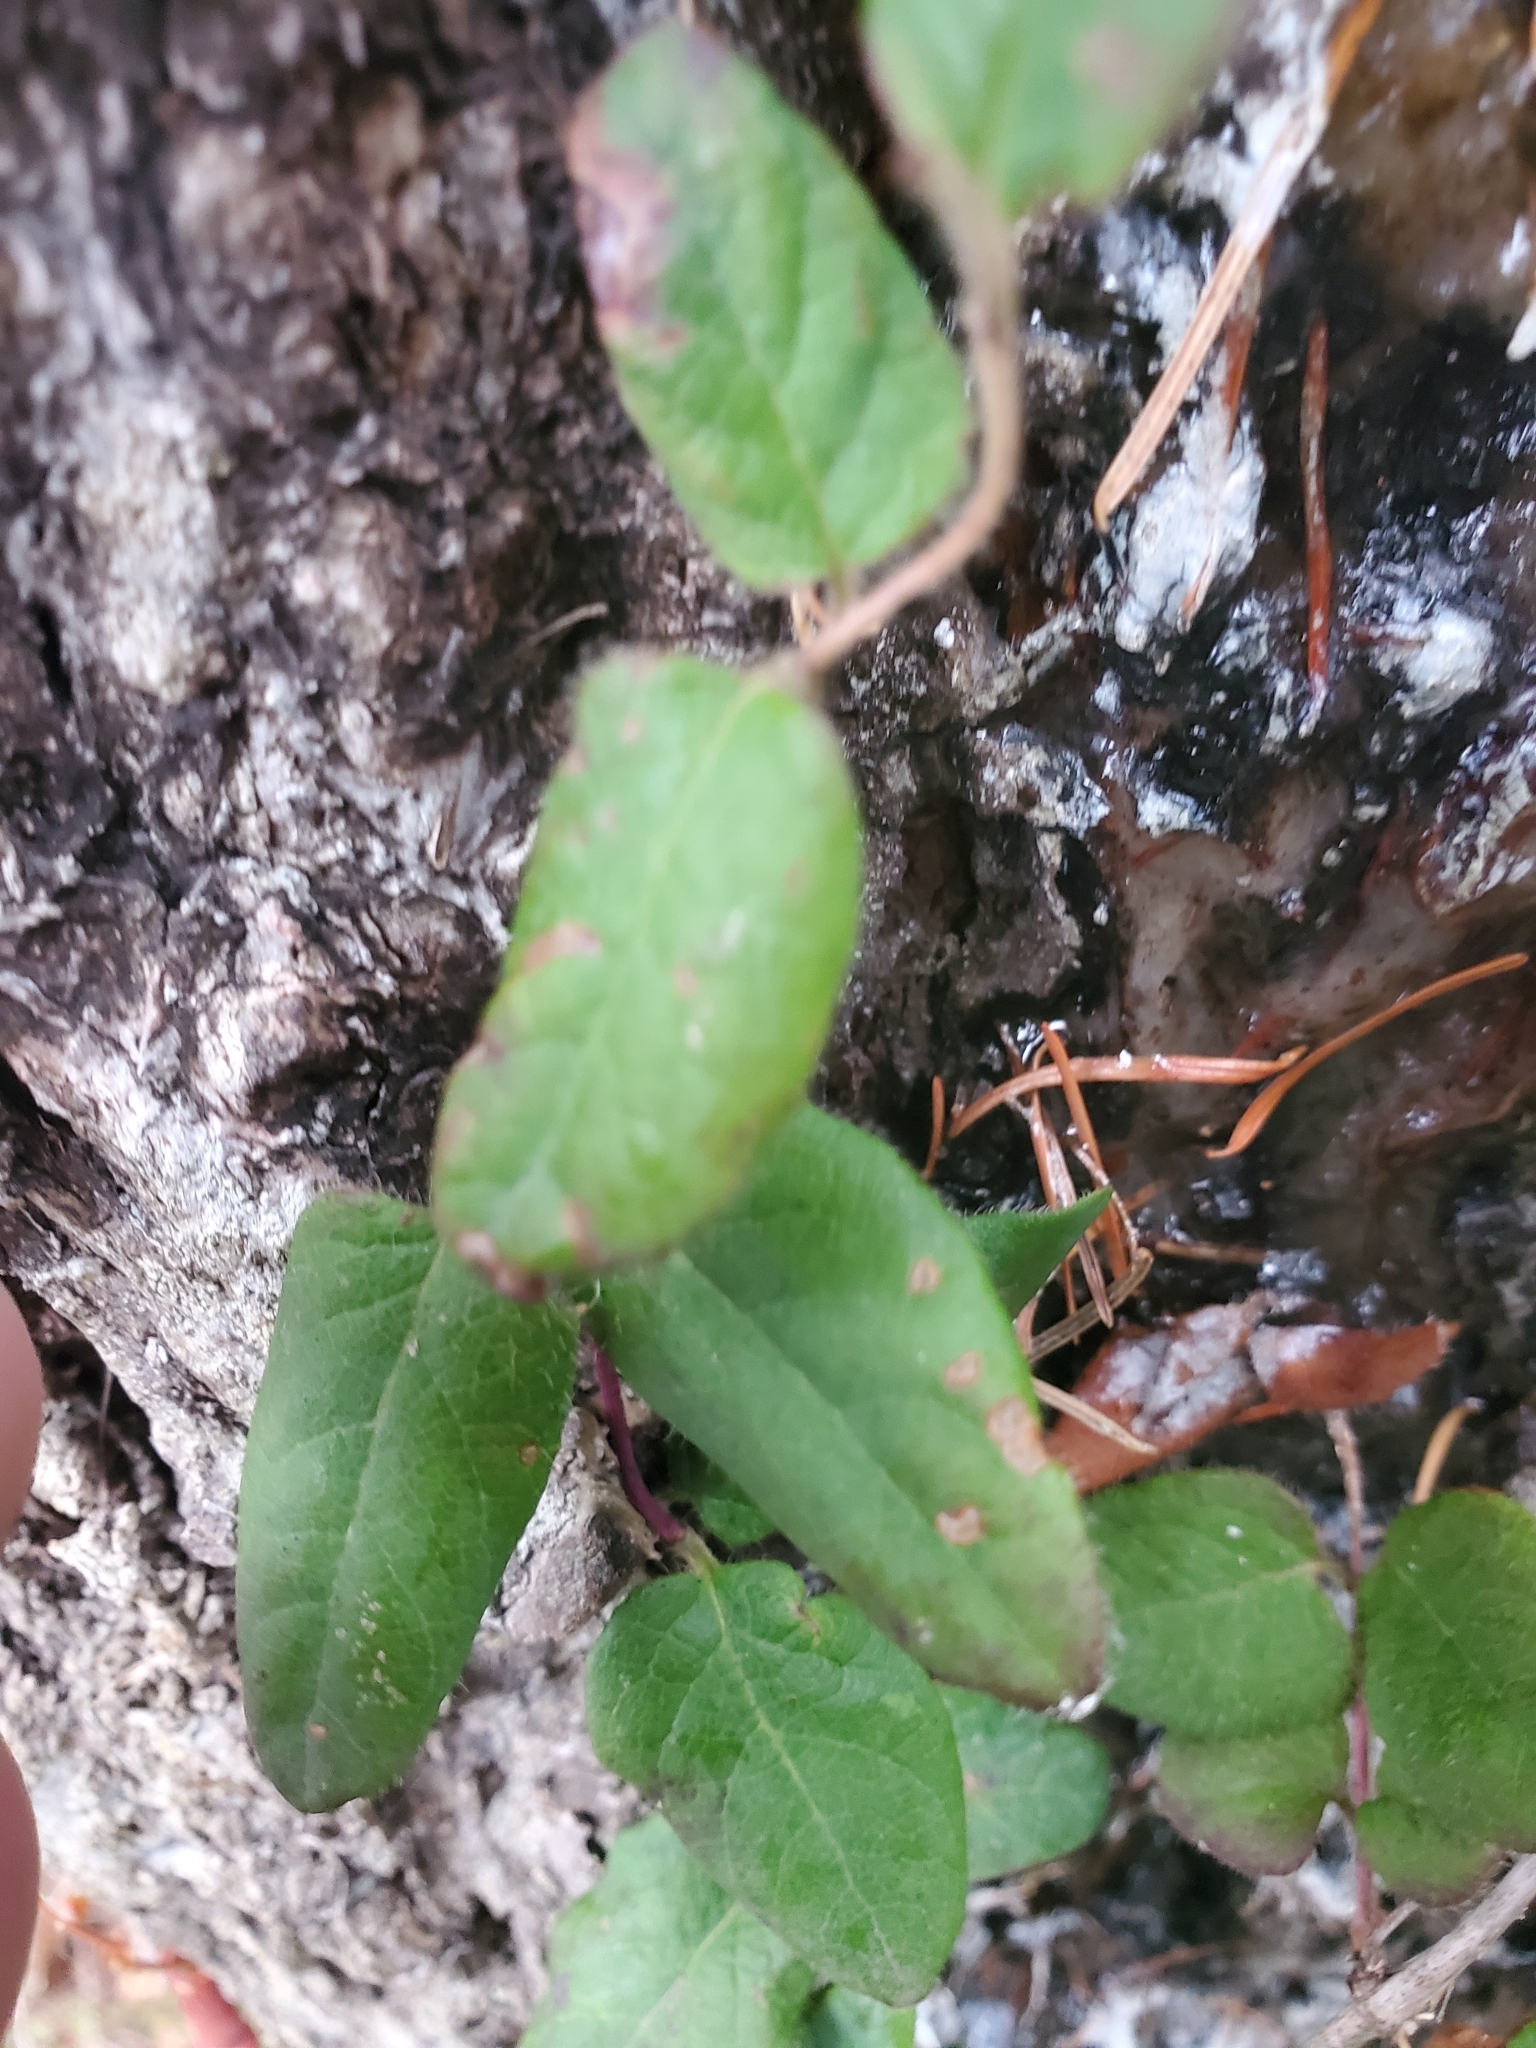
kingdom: Plantae
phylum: Tracheophyta
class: Magnoliopsida
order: Dipsacales
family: Caprifoliaceae
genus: Lonicera
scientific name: Lonicera hispidula
